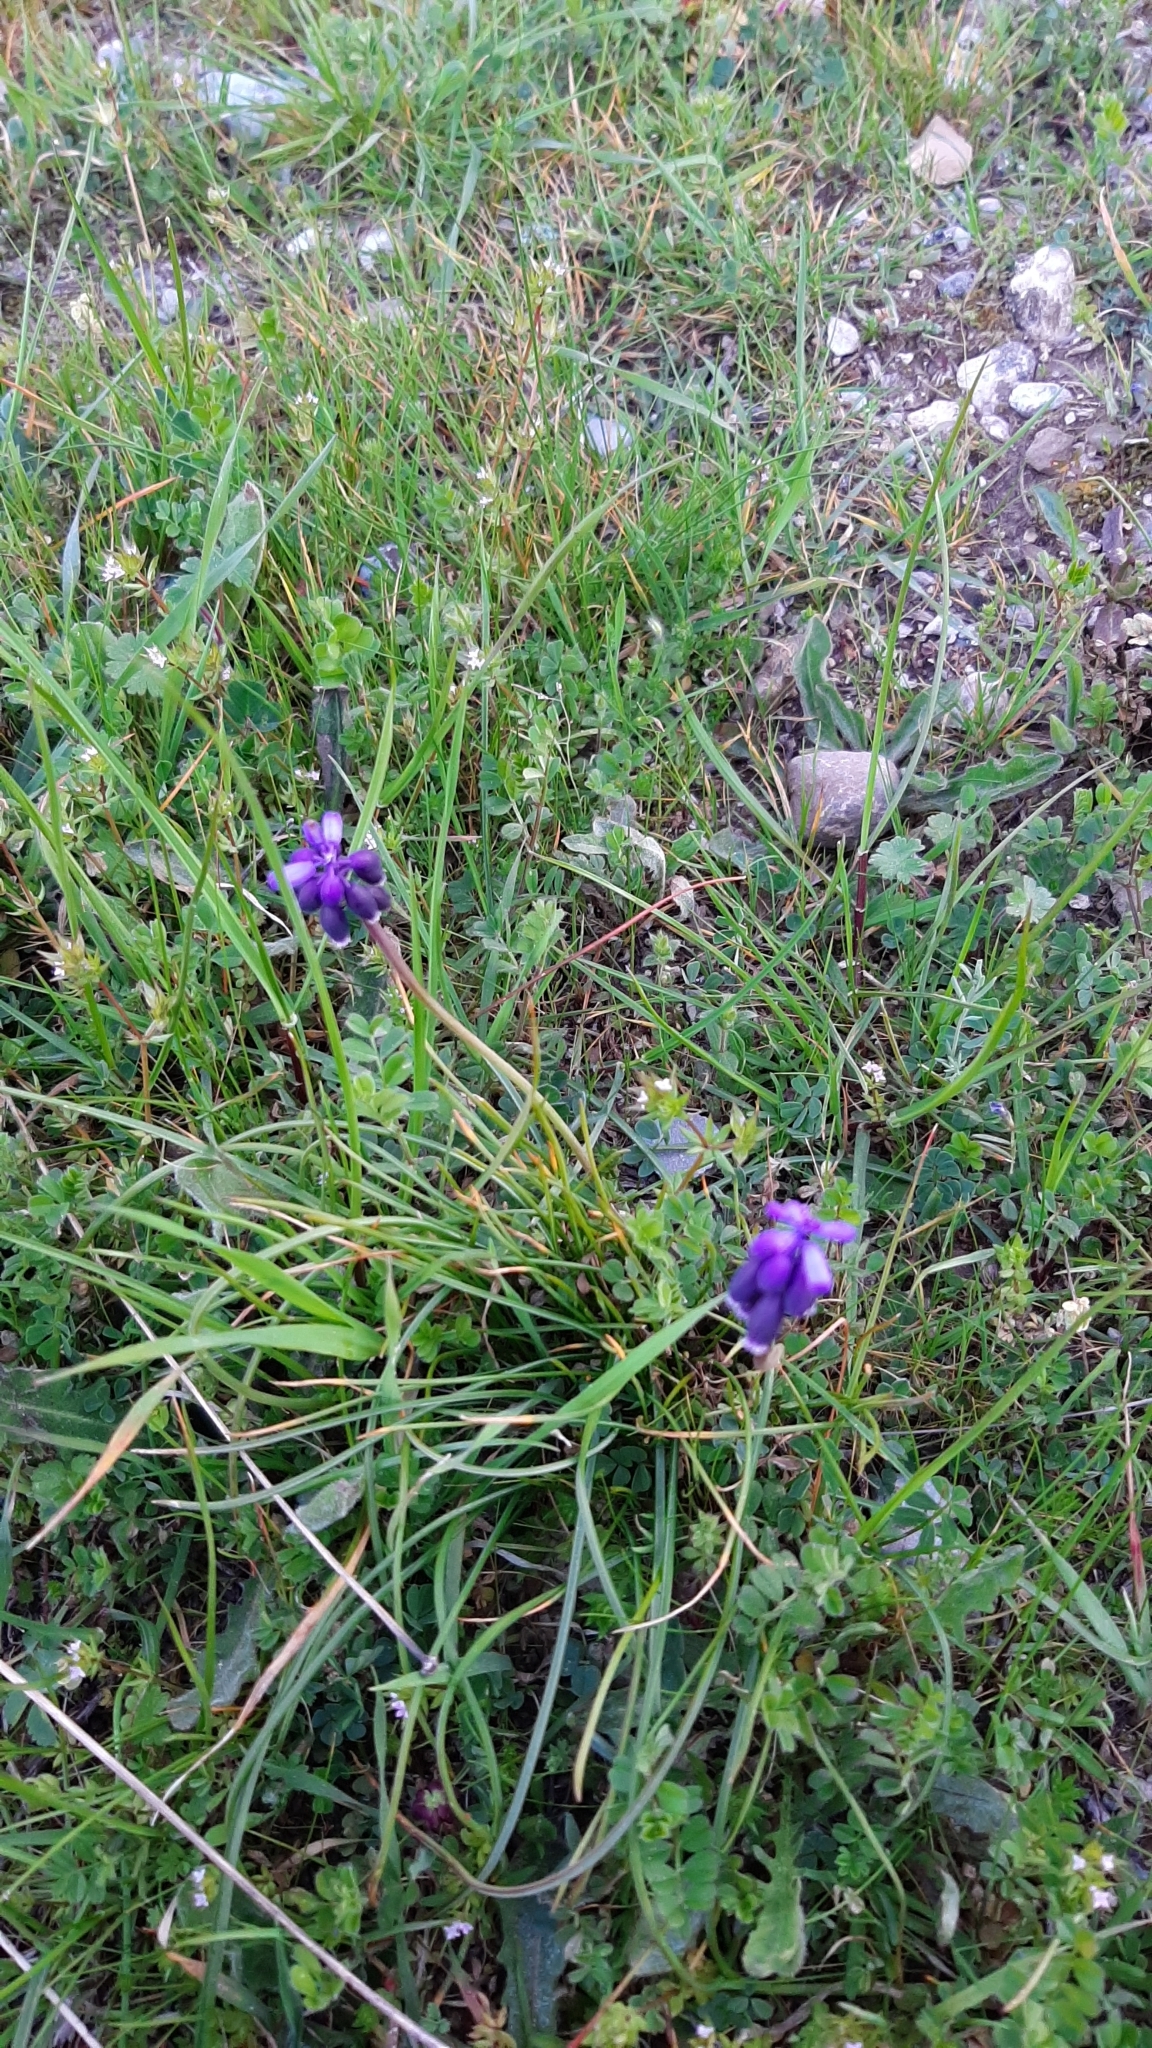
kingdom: Plantae
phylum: Tracheophyta
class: Liliopsida
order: Asparagales
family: Asparagaceae
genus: Muscari
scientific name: Muscari neglectum
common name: Grape-hyacinth
